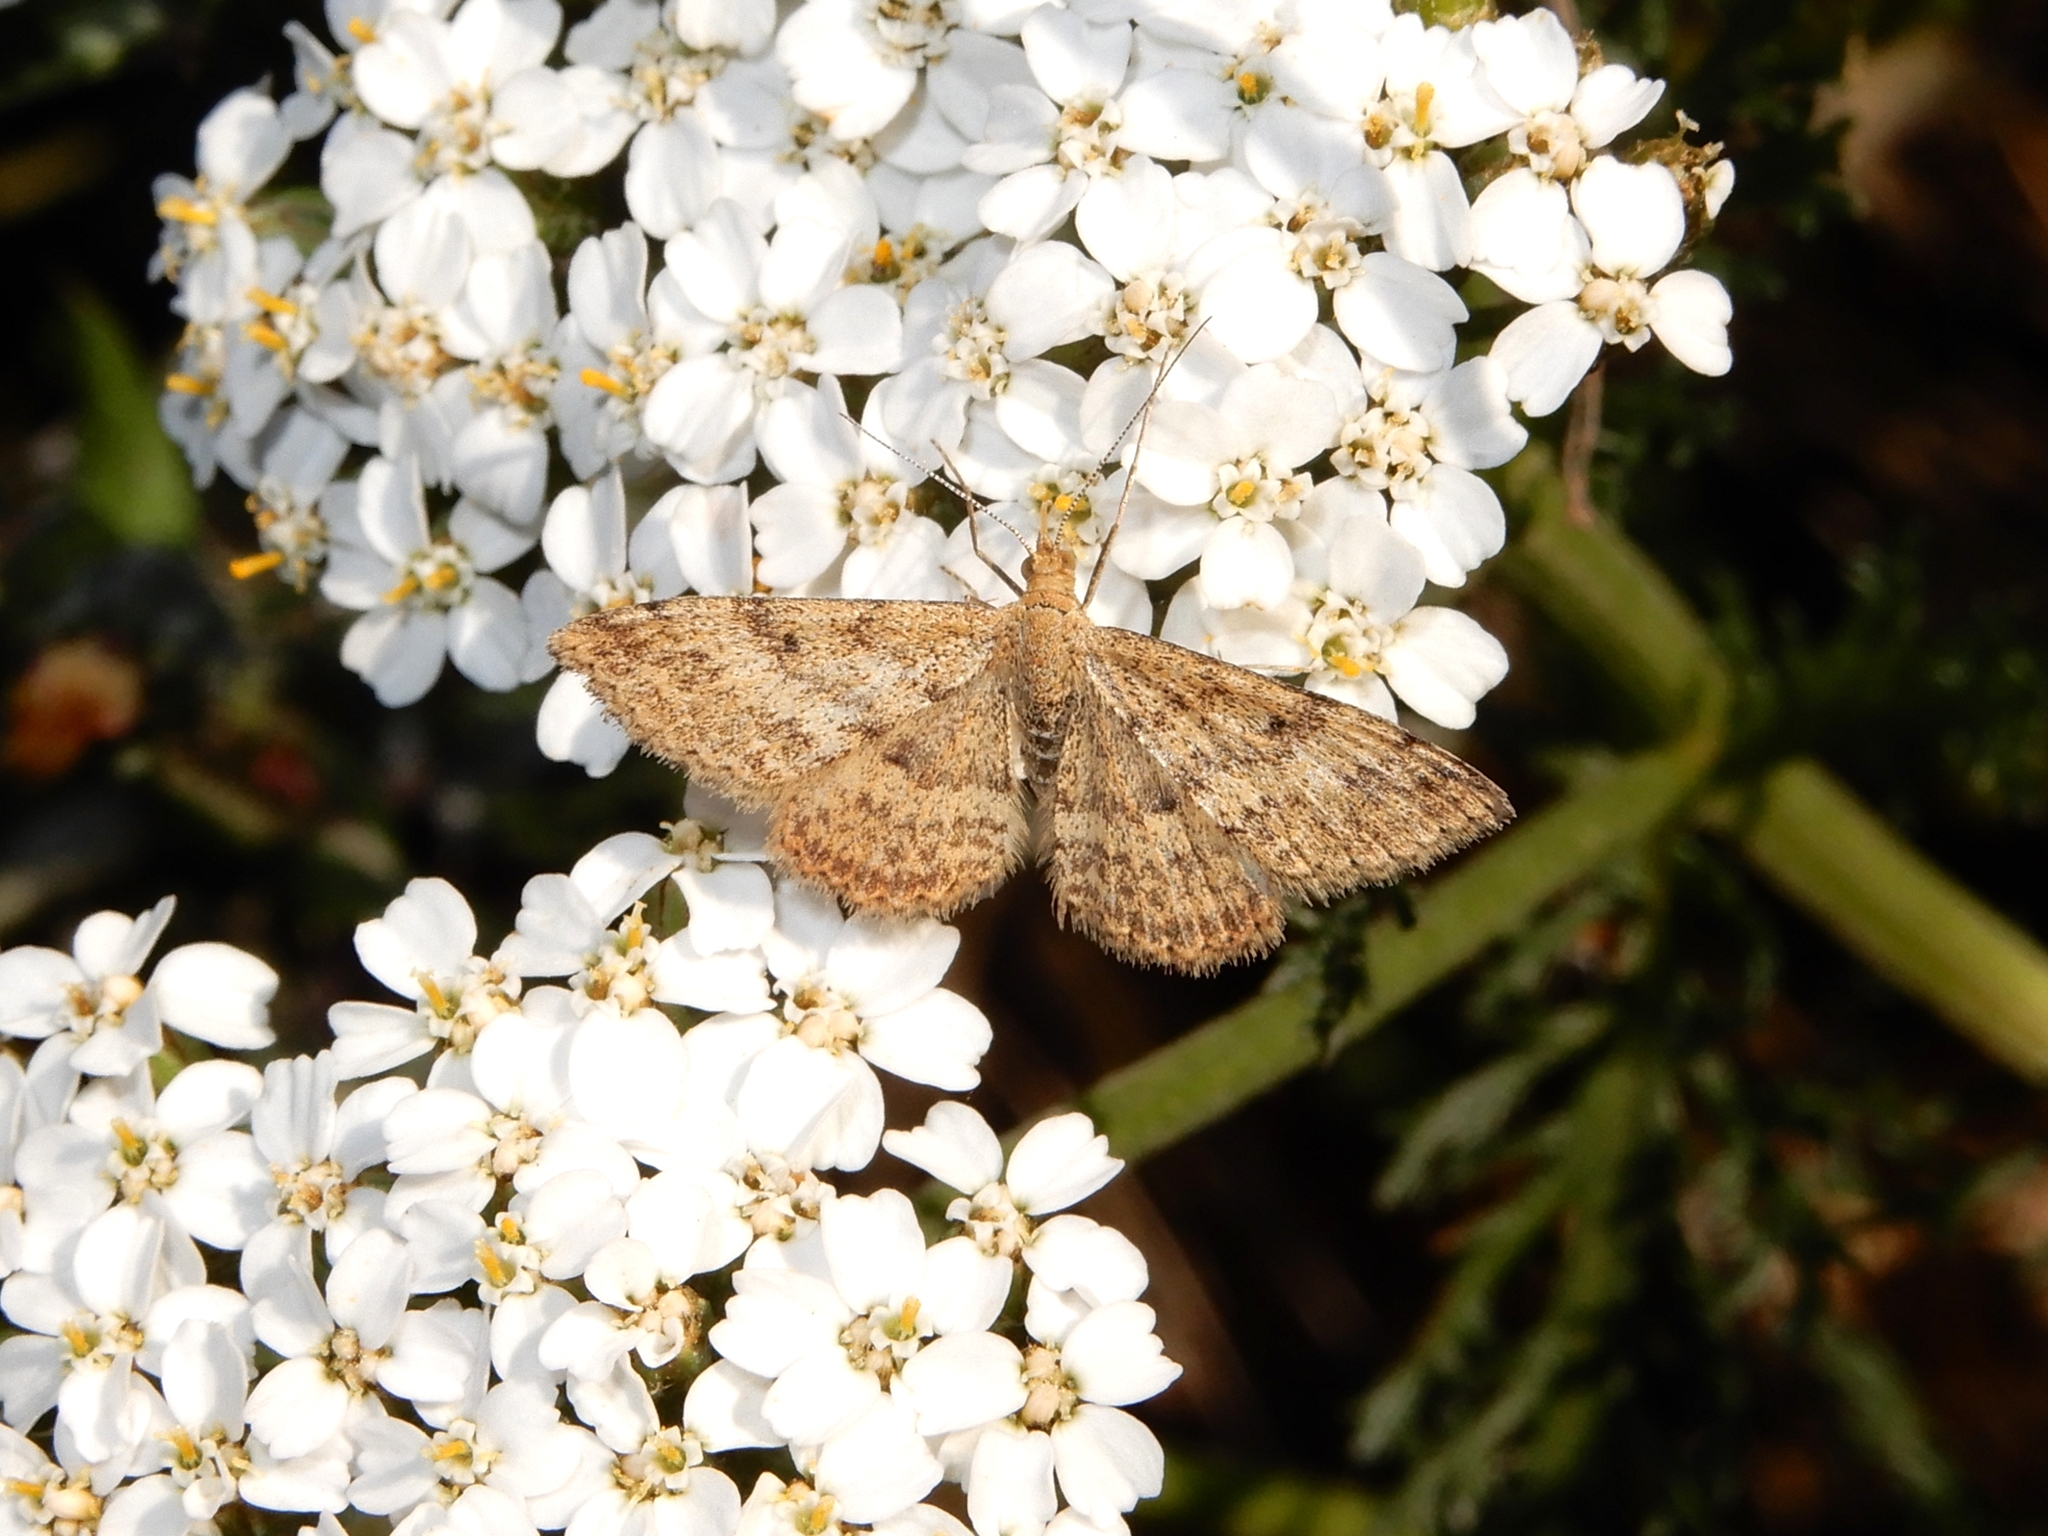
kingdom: Animalia
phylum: Arthropoda
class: Insecta
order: Lepidoptera
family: Geometridae
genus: Scopula
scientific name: Scopula rubraria
